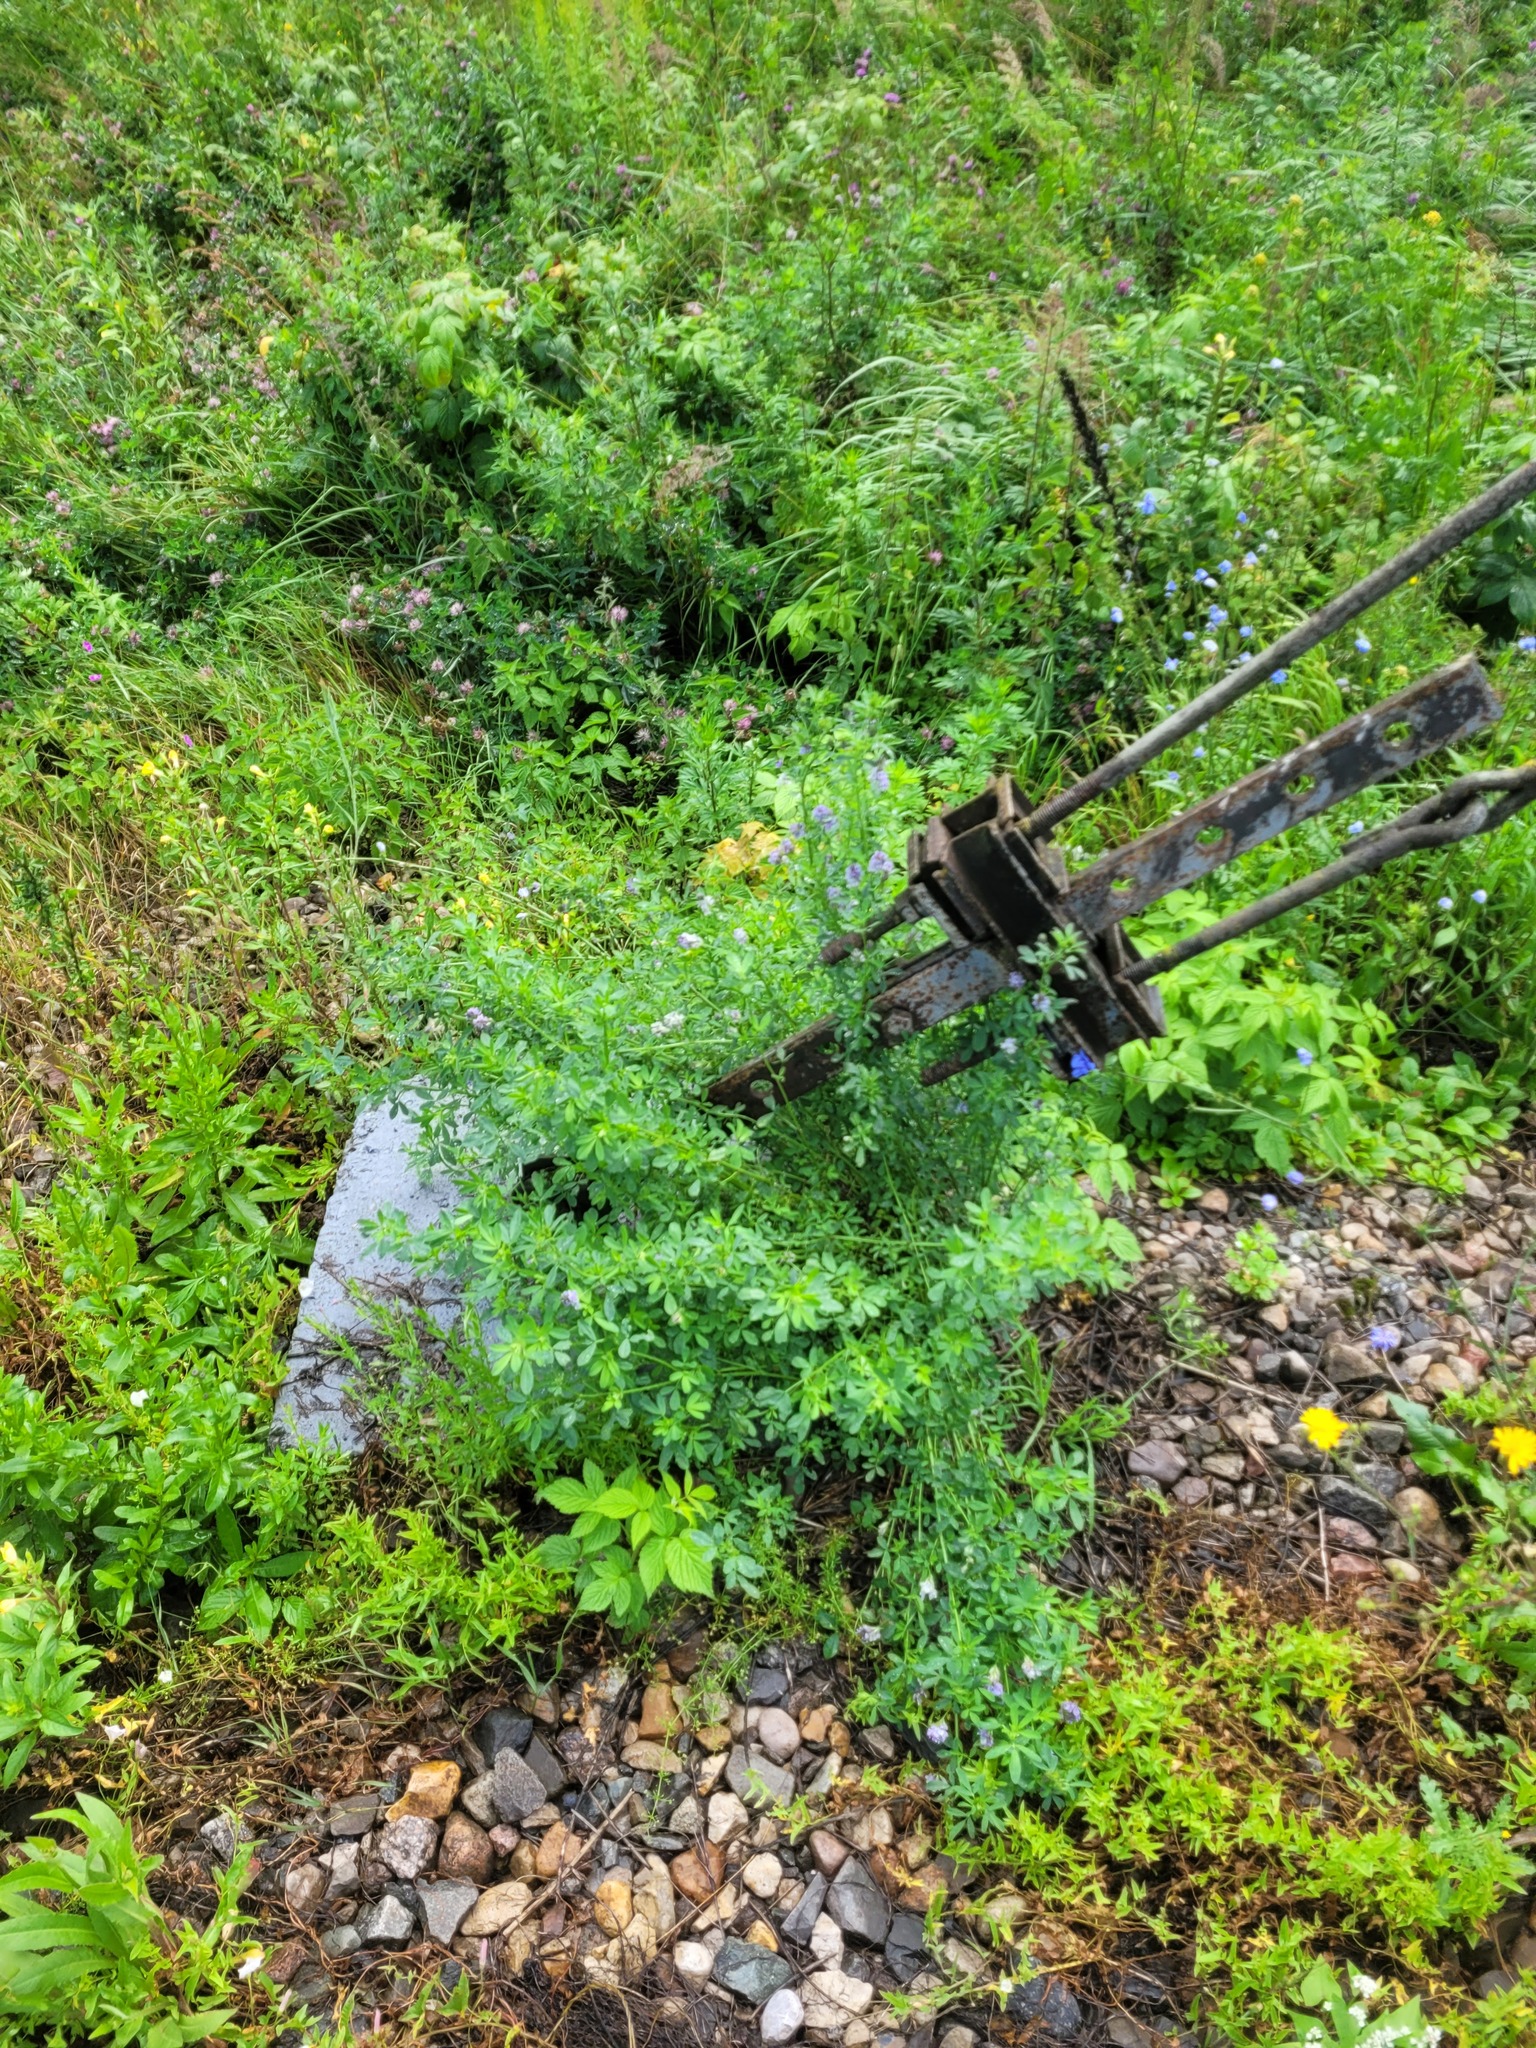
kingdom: Plantae
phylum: Tracheophyta
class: Magnoliopsida
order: Fabales
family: Fabaceae
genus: Medicago
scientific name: Medicago varia
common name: Sand lucerne
